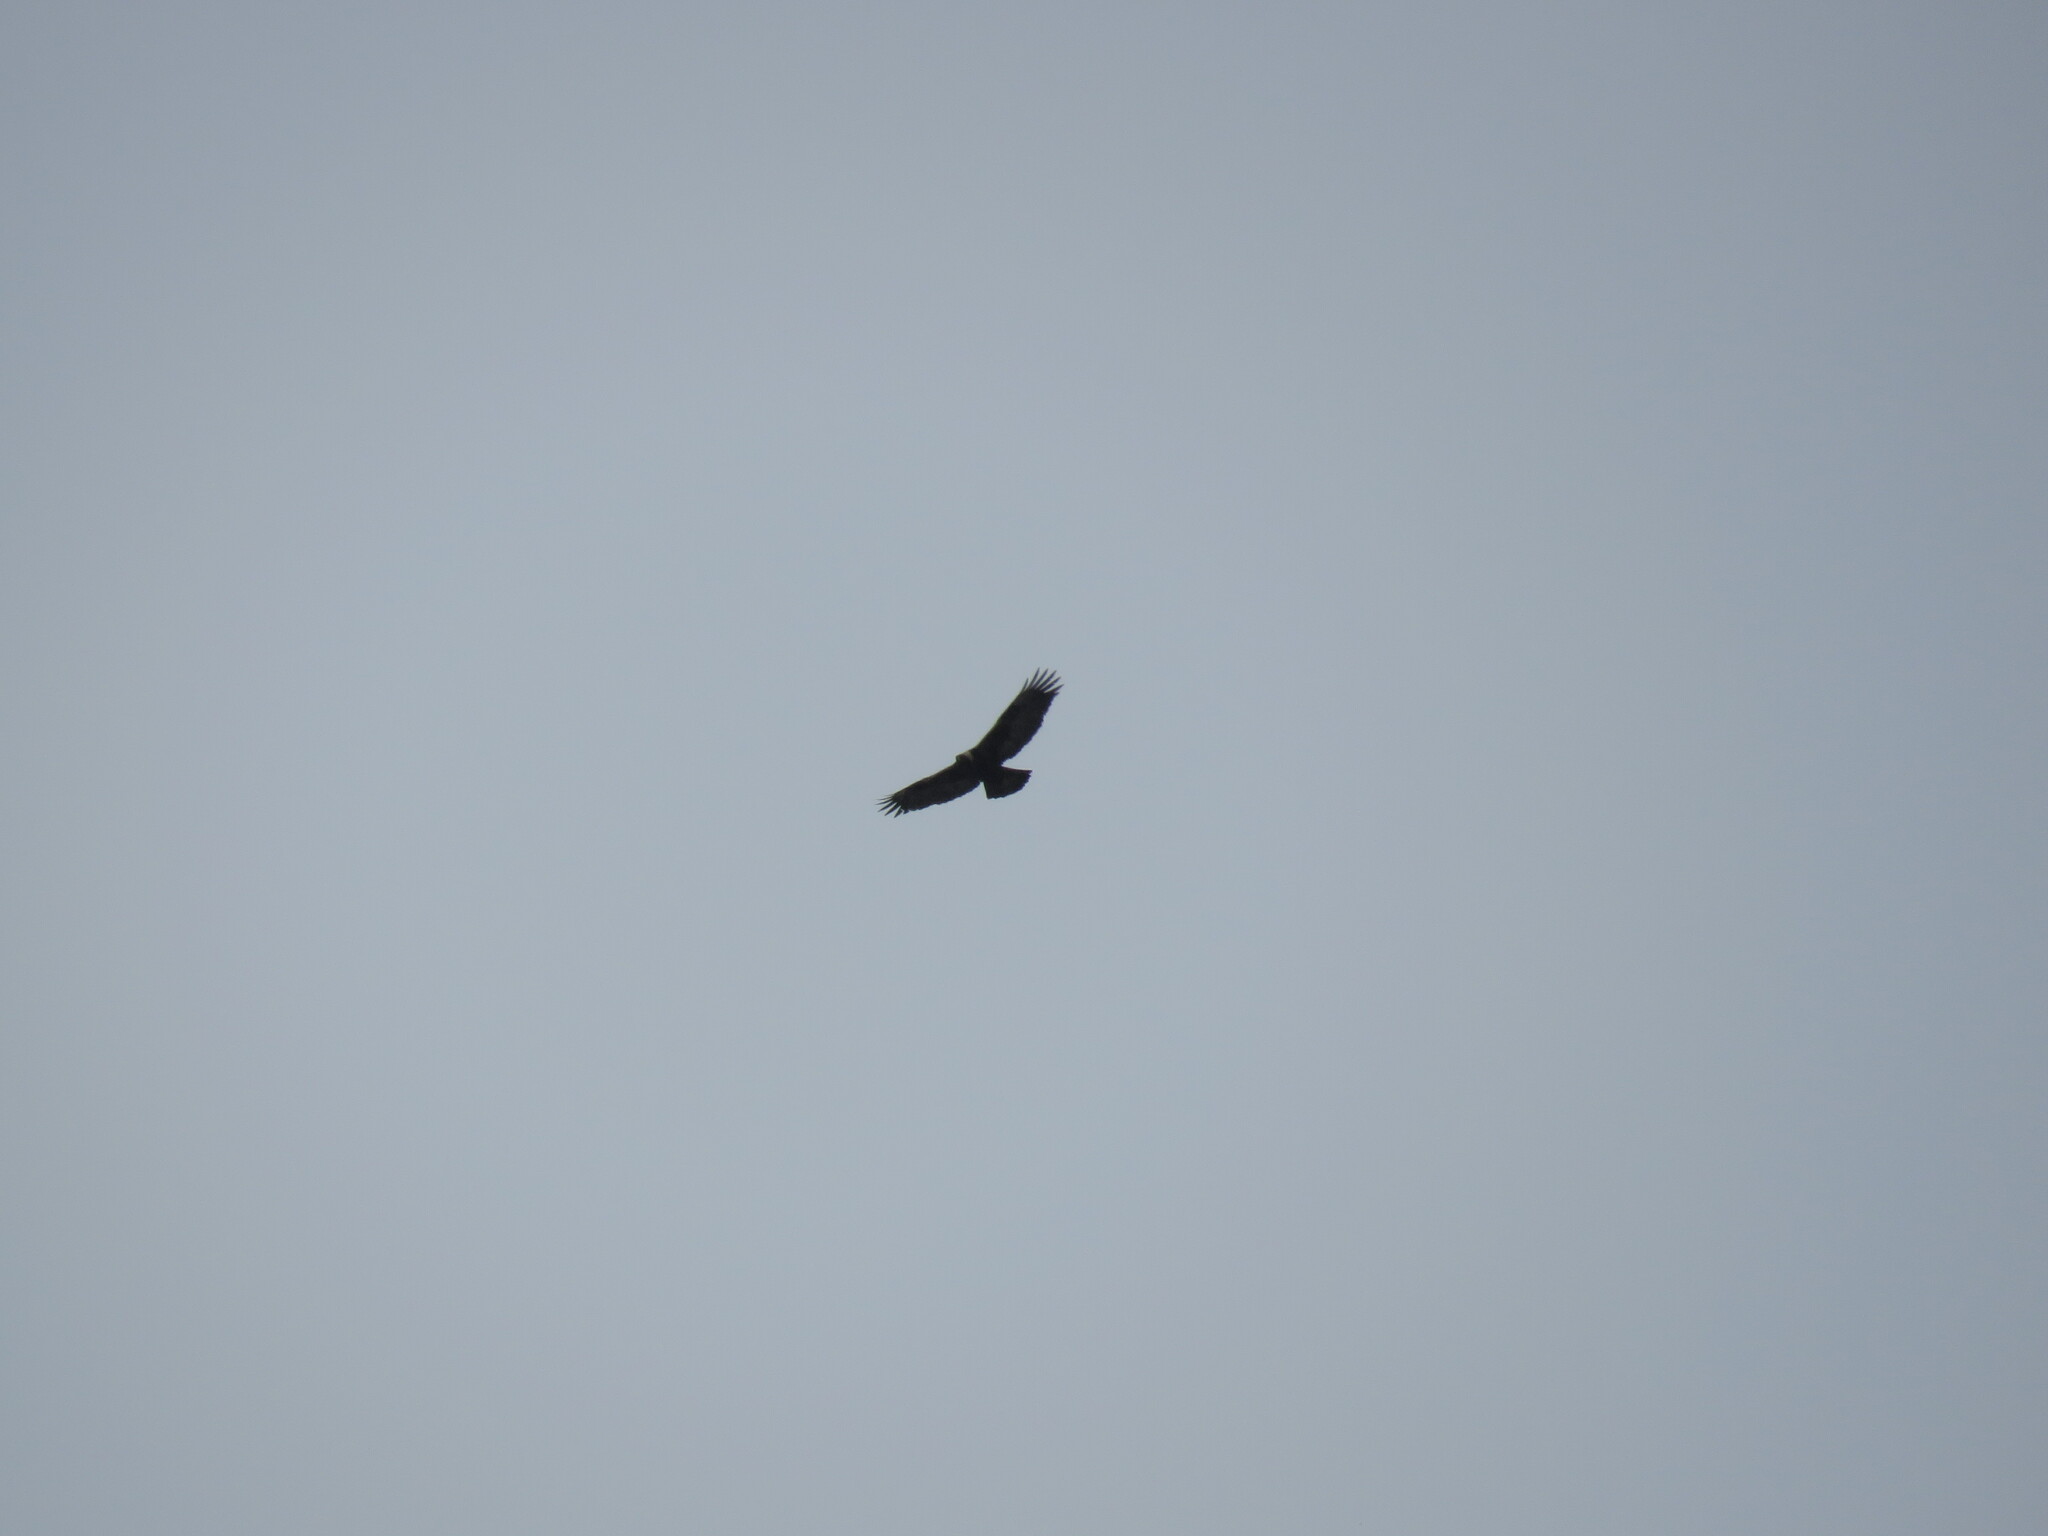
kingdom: Animalia
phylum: Chordata
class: Aves
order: Accipitriformes
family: Accipitridae
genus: Aquila
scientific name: Aquila chrysaetos
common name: Golden eagle
